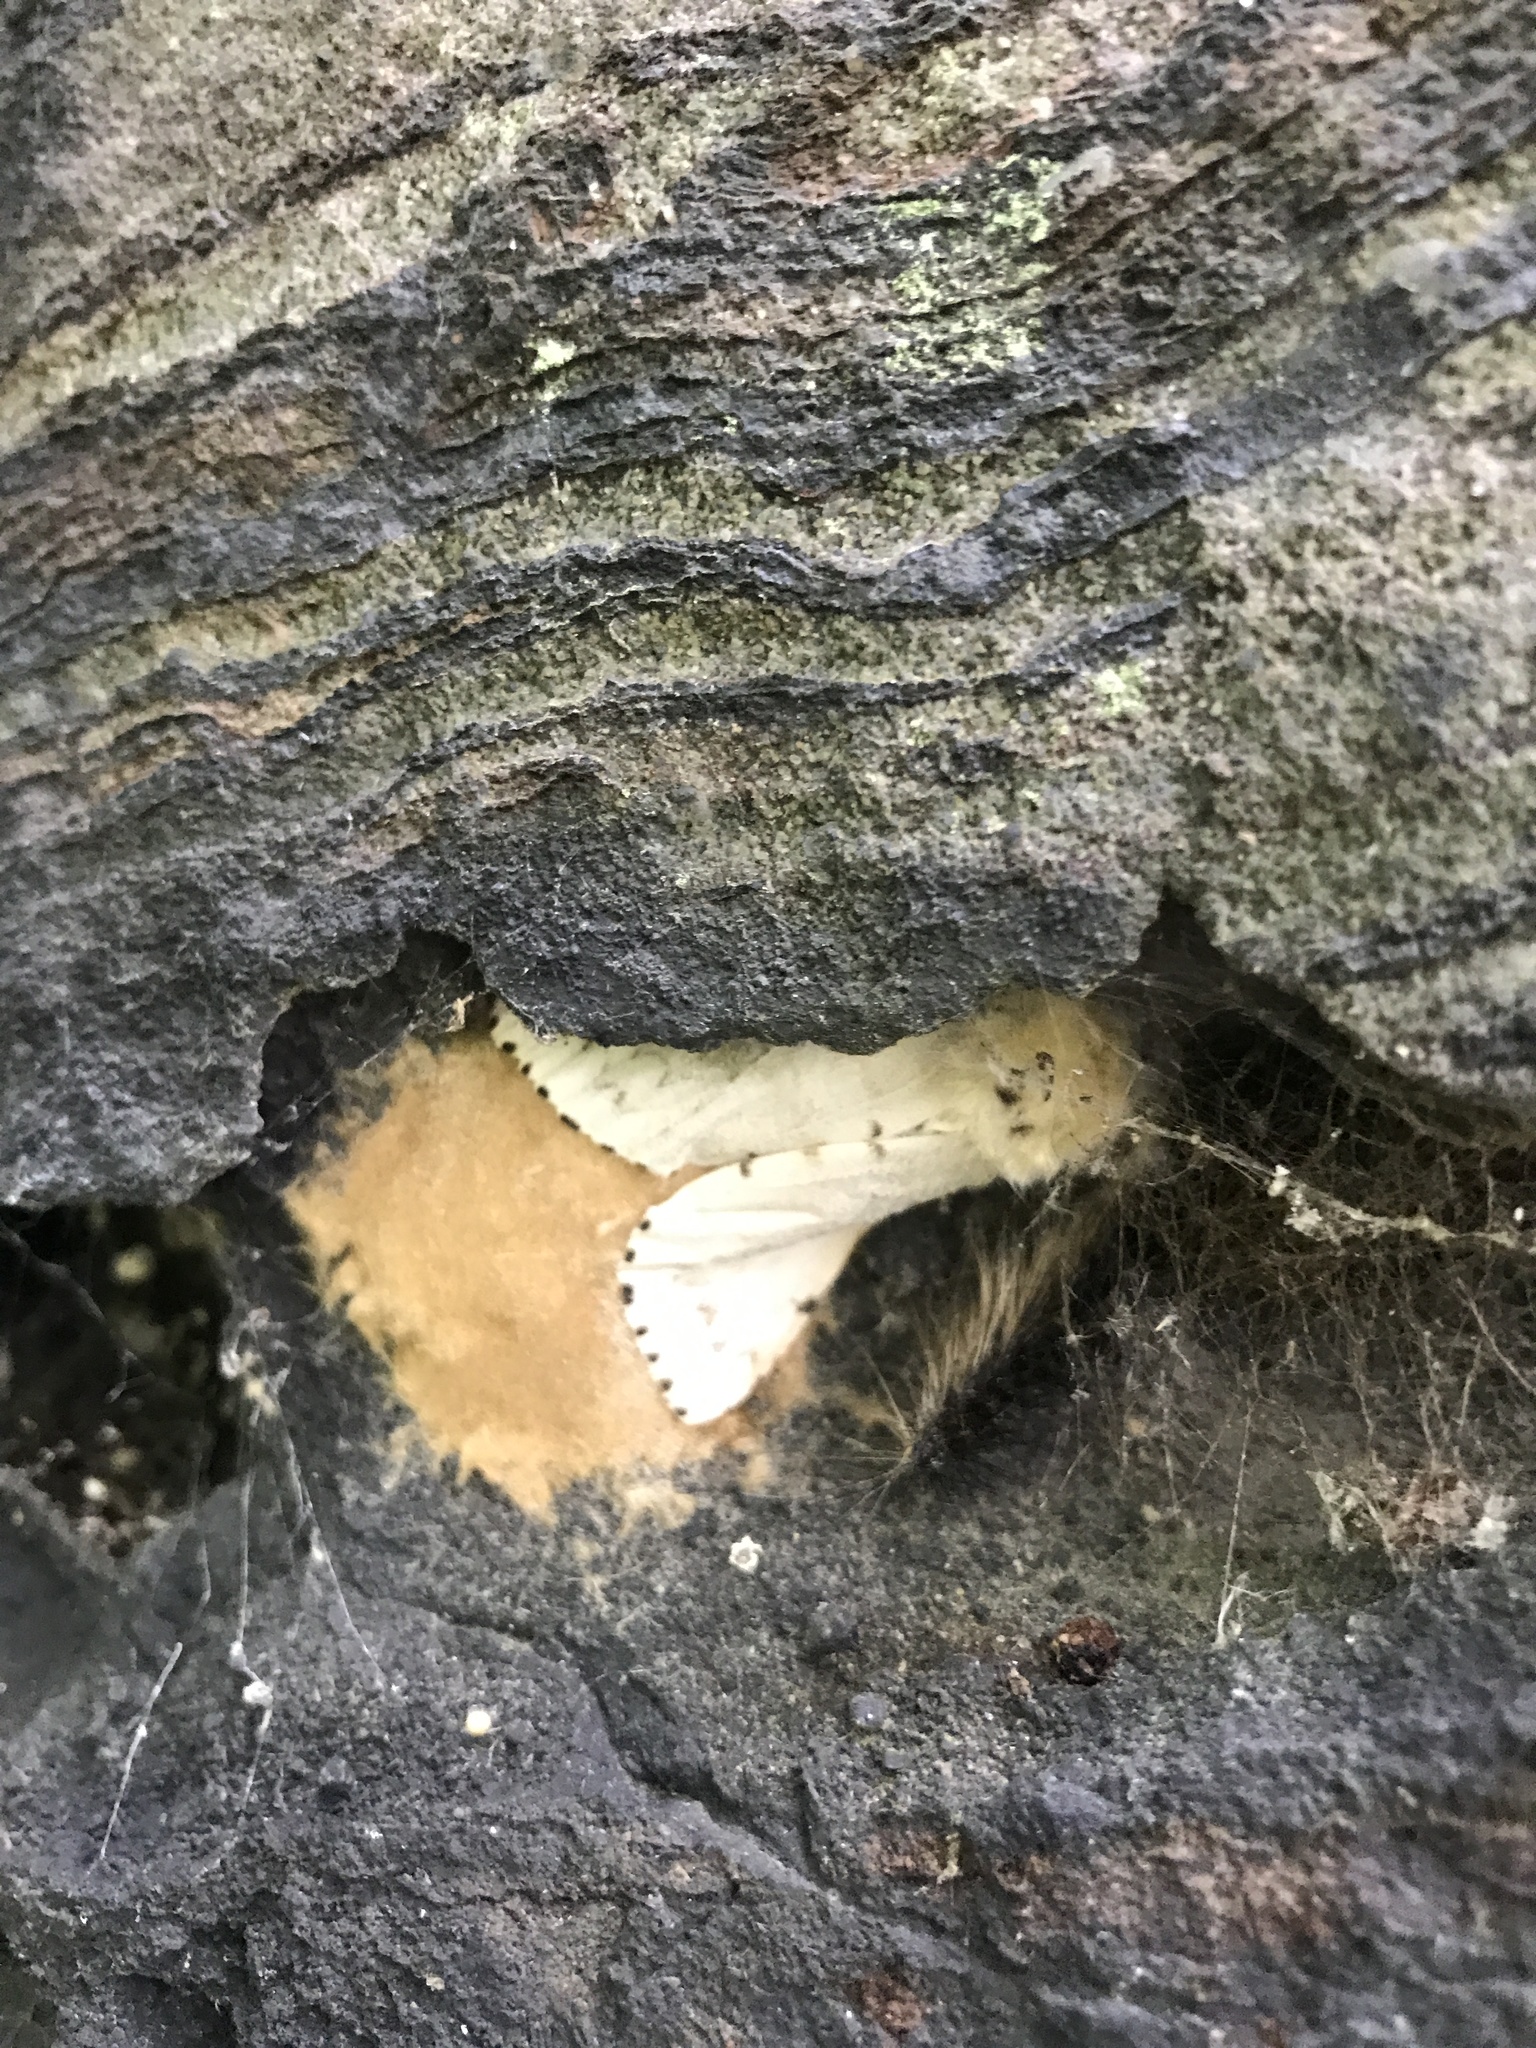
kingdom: Animalia
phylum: Arthropoda
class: Insecta
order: Lepidoptera
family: Erebidae
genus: Lymantria
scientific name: Lymantria dispar
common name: Gypsy moth
